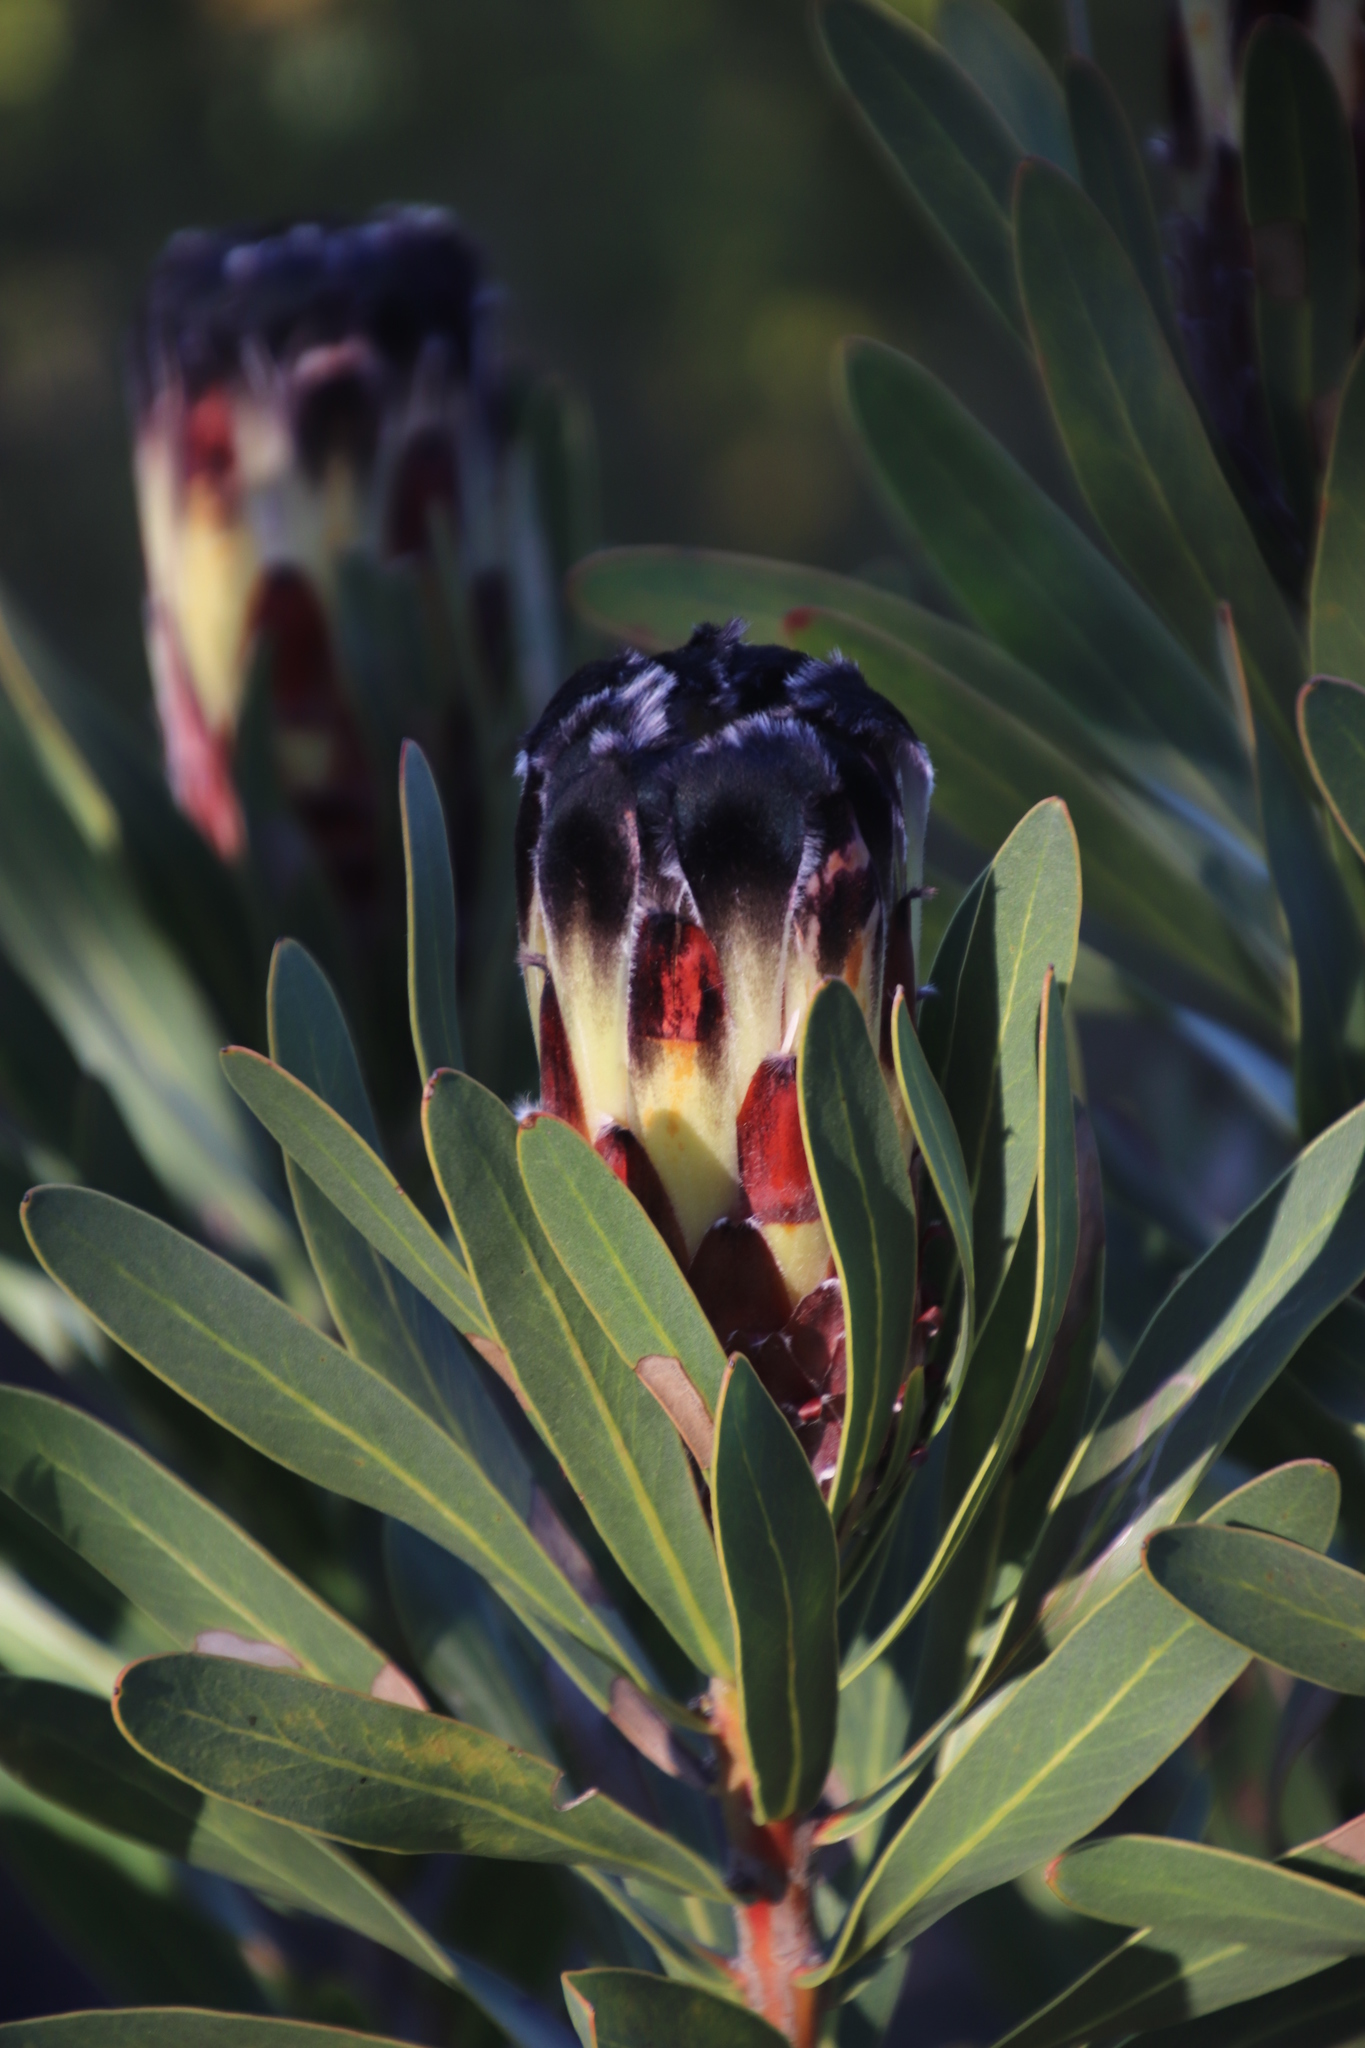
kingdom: Plantae
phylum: Tracheophyta
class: Magnoliopsida
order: Proteales
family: Proteaceae
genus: Protea
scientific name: Protea lepidocarpodendron
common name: Black-bearded protea
